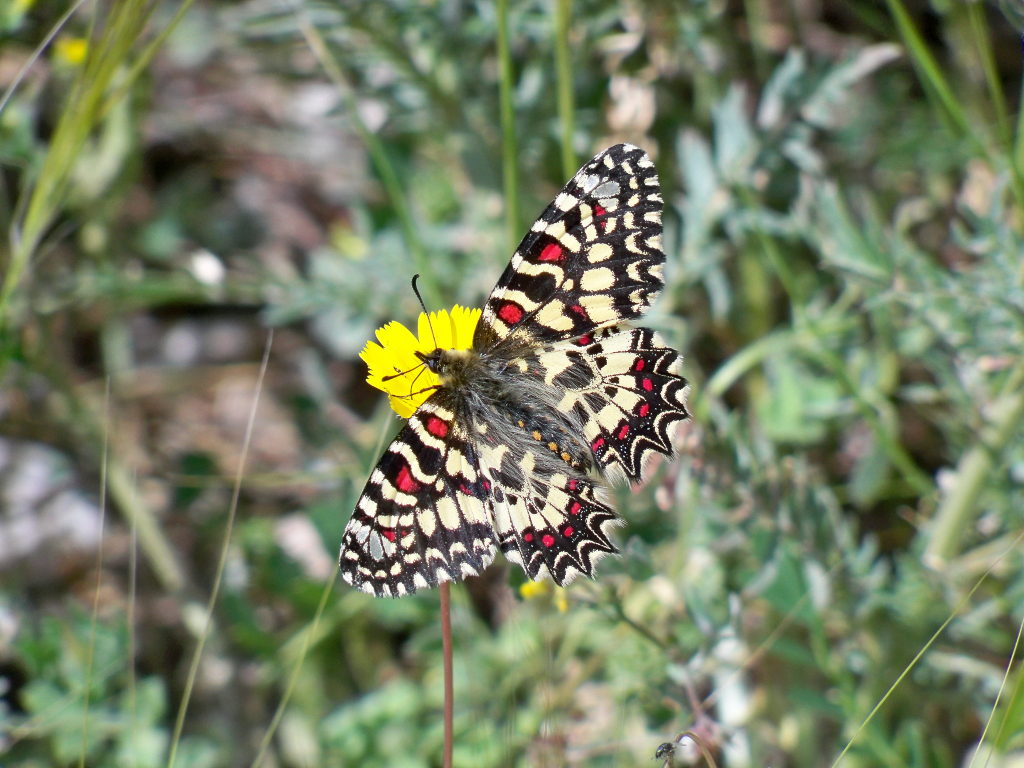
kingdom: Animalia
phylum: Arthropoda
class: Insecta
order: Lepidoptera
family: Papilionidae
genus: Zerynthia
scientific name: Zerynthia rumina
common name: Spanish festoon
